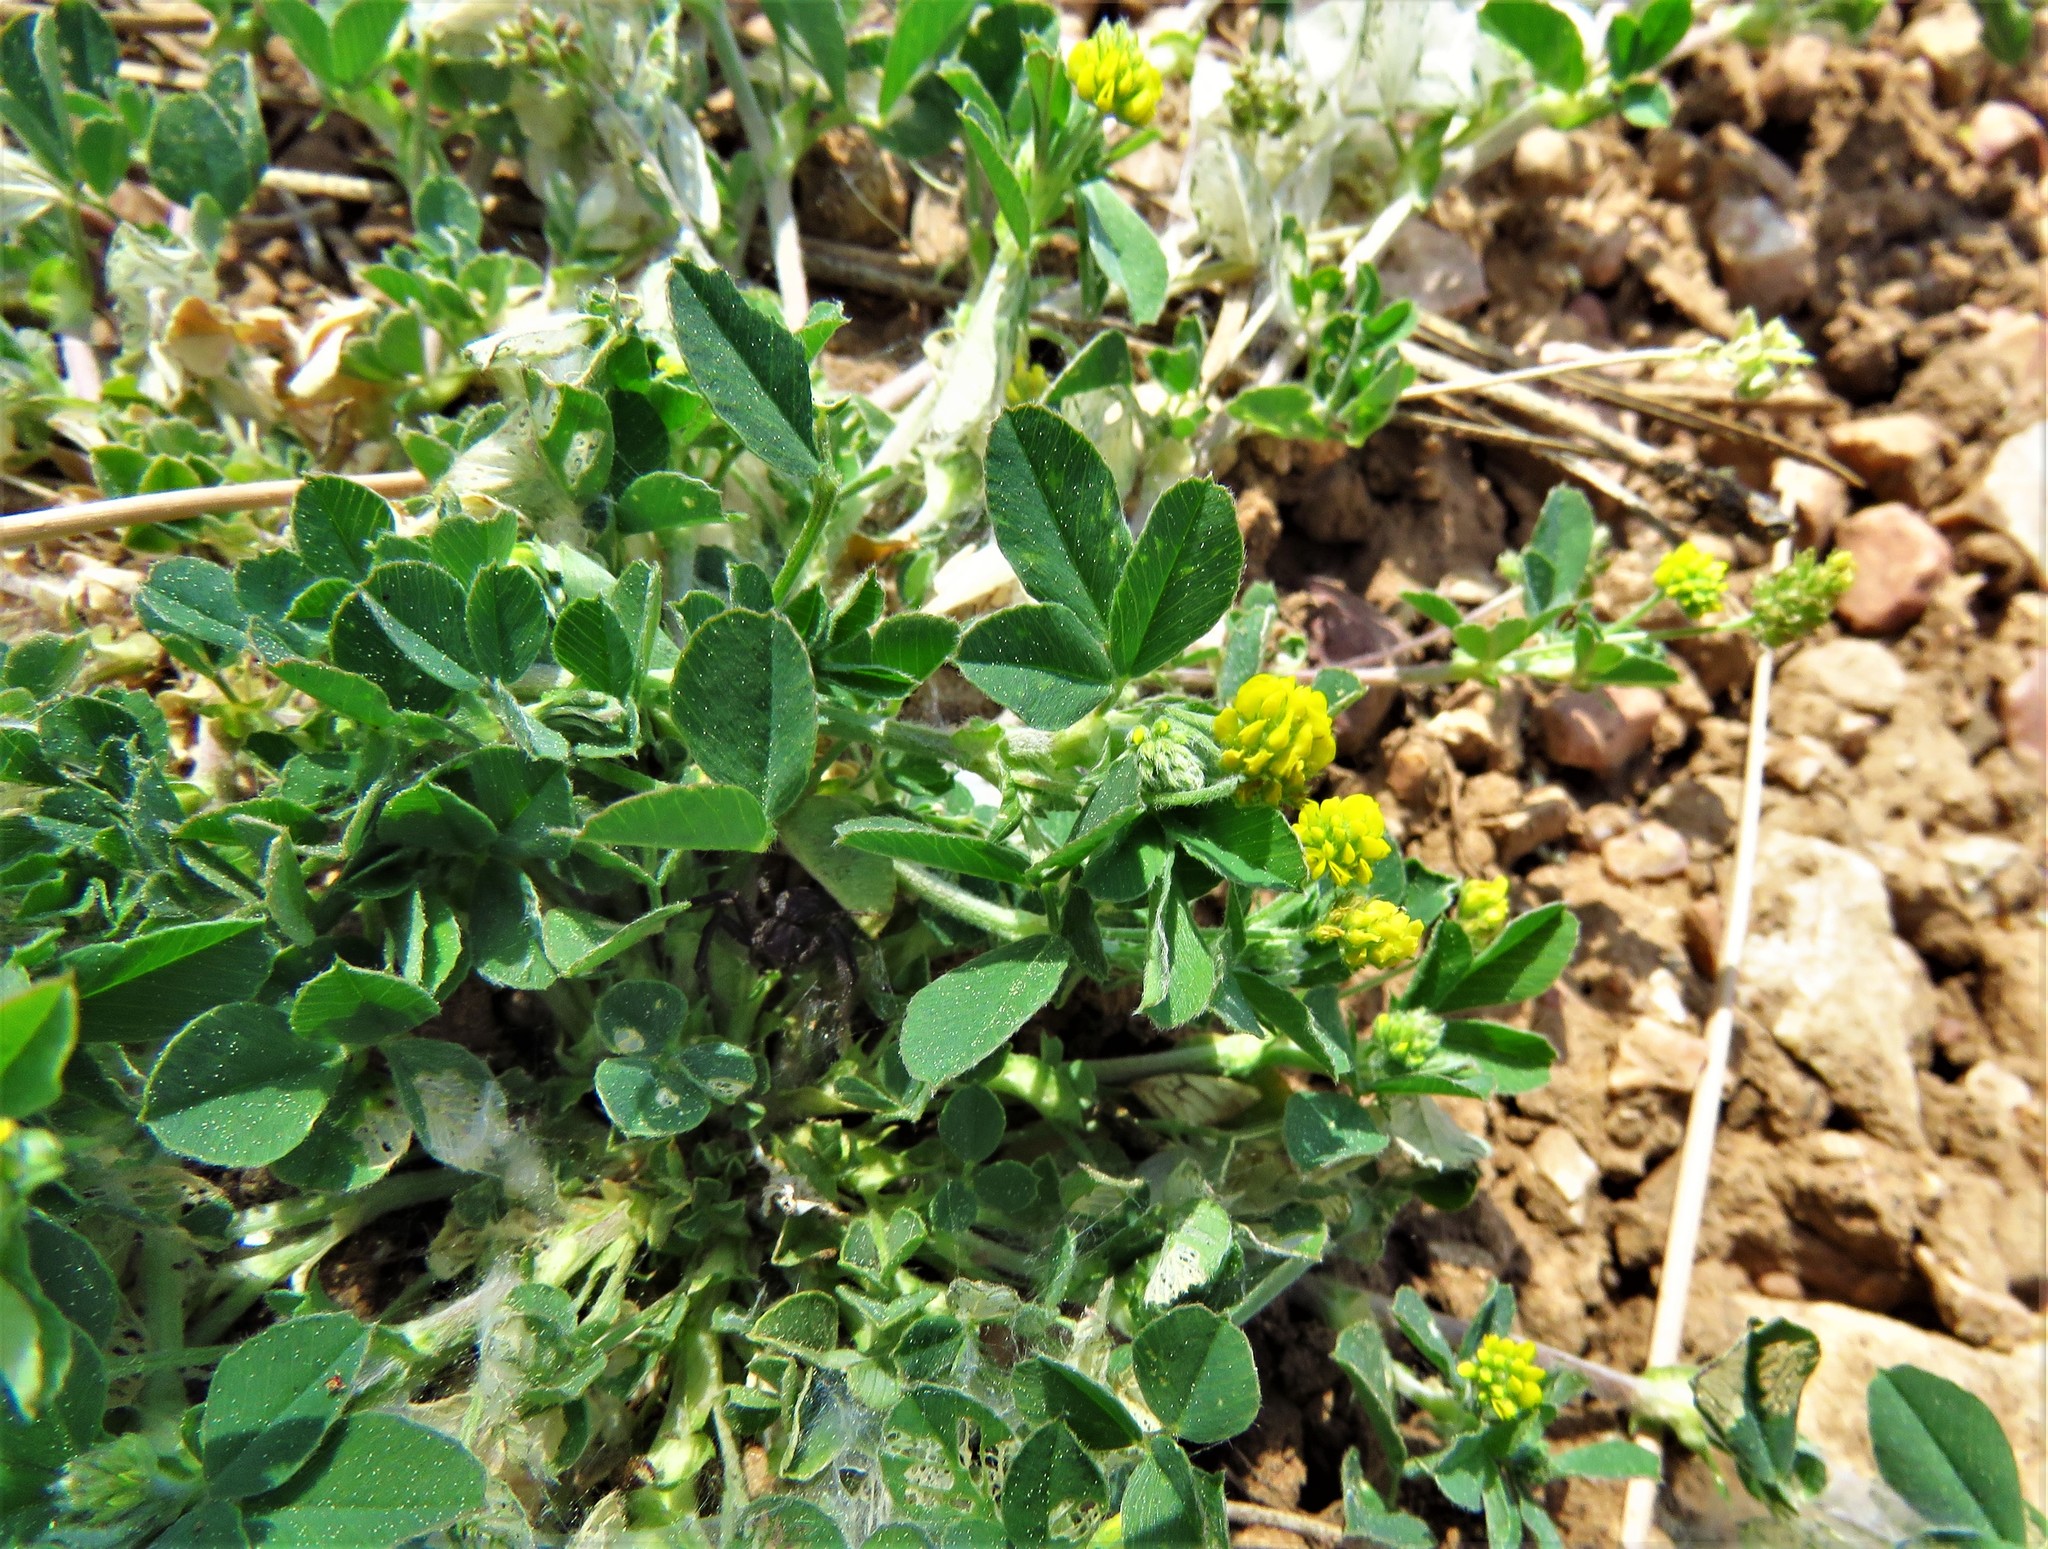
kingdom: Plantae
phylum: Tracheophyta
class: Magnoliopsida
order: Fabales
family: Fabaceae
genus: Medicago
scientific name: Medicago lupulina
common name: Black medick
